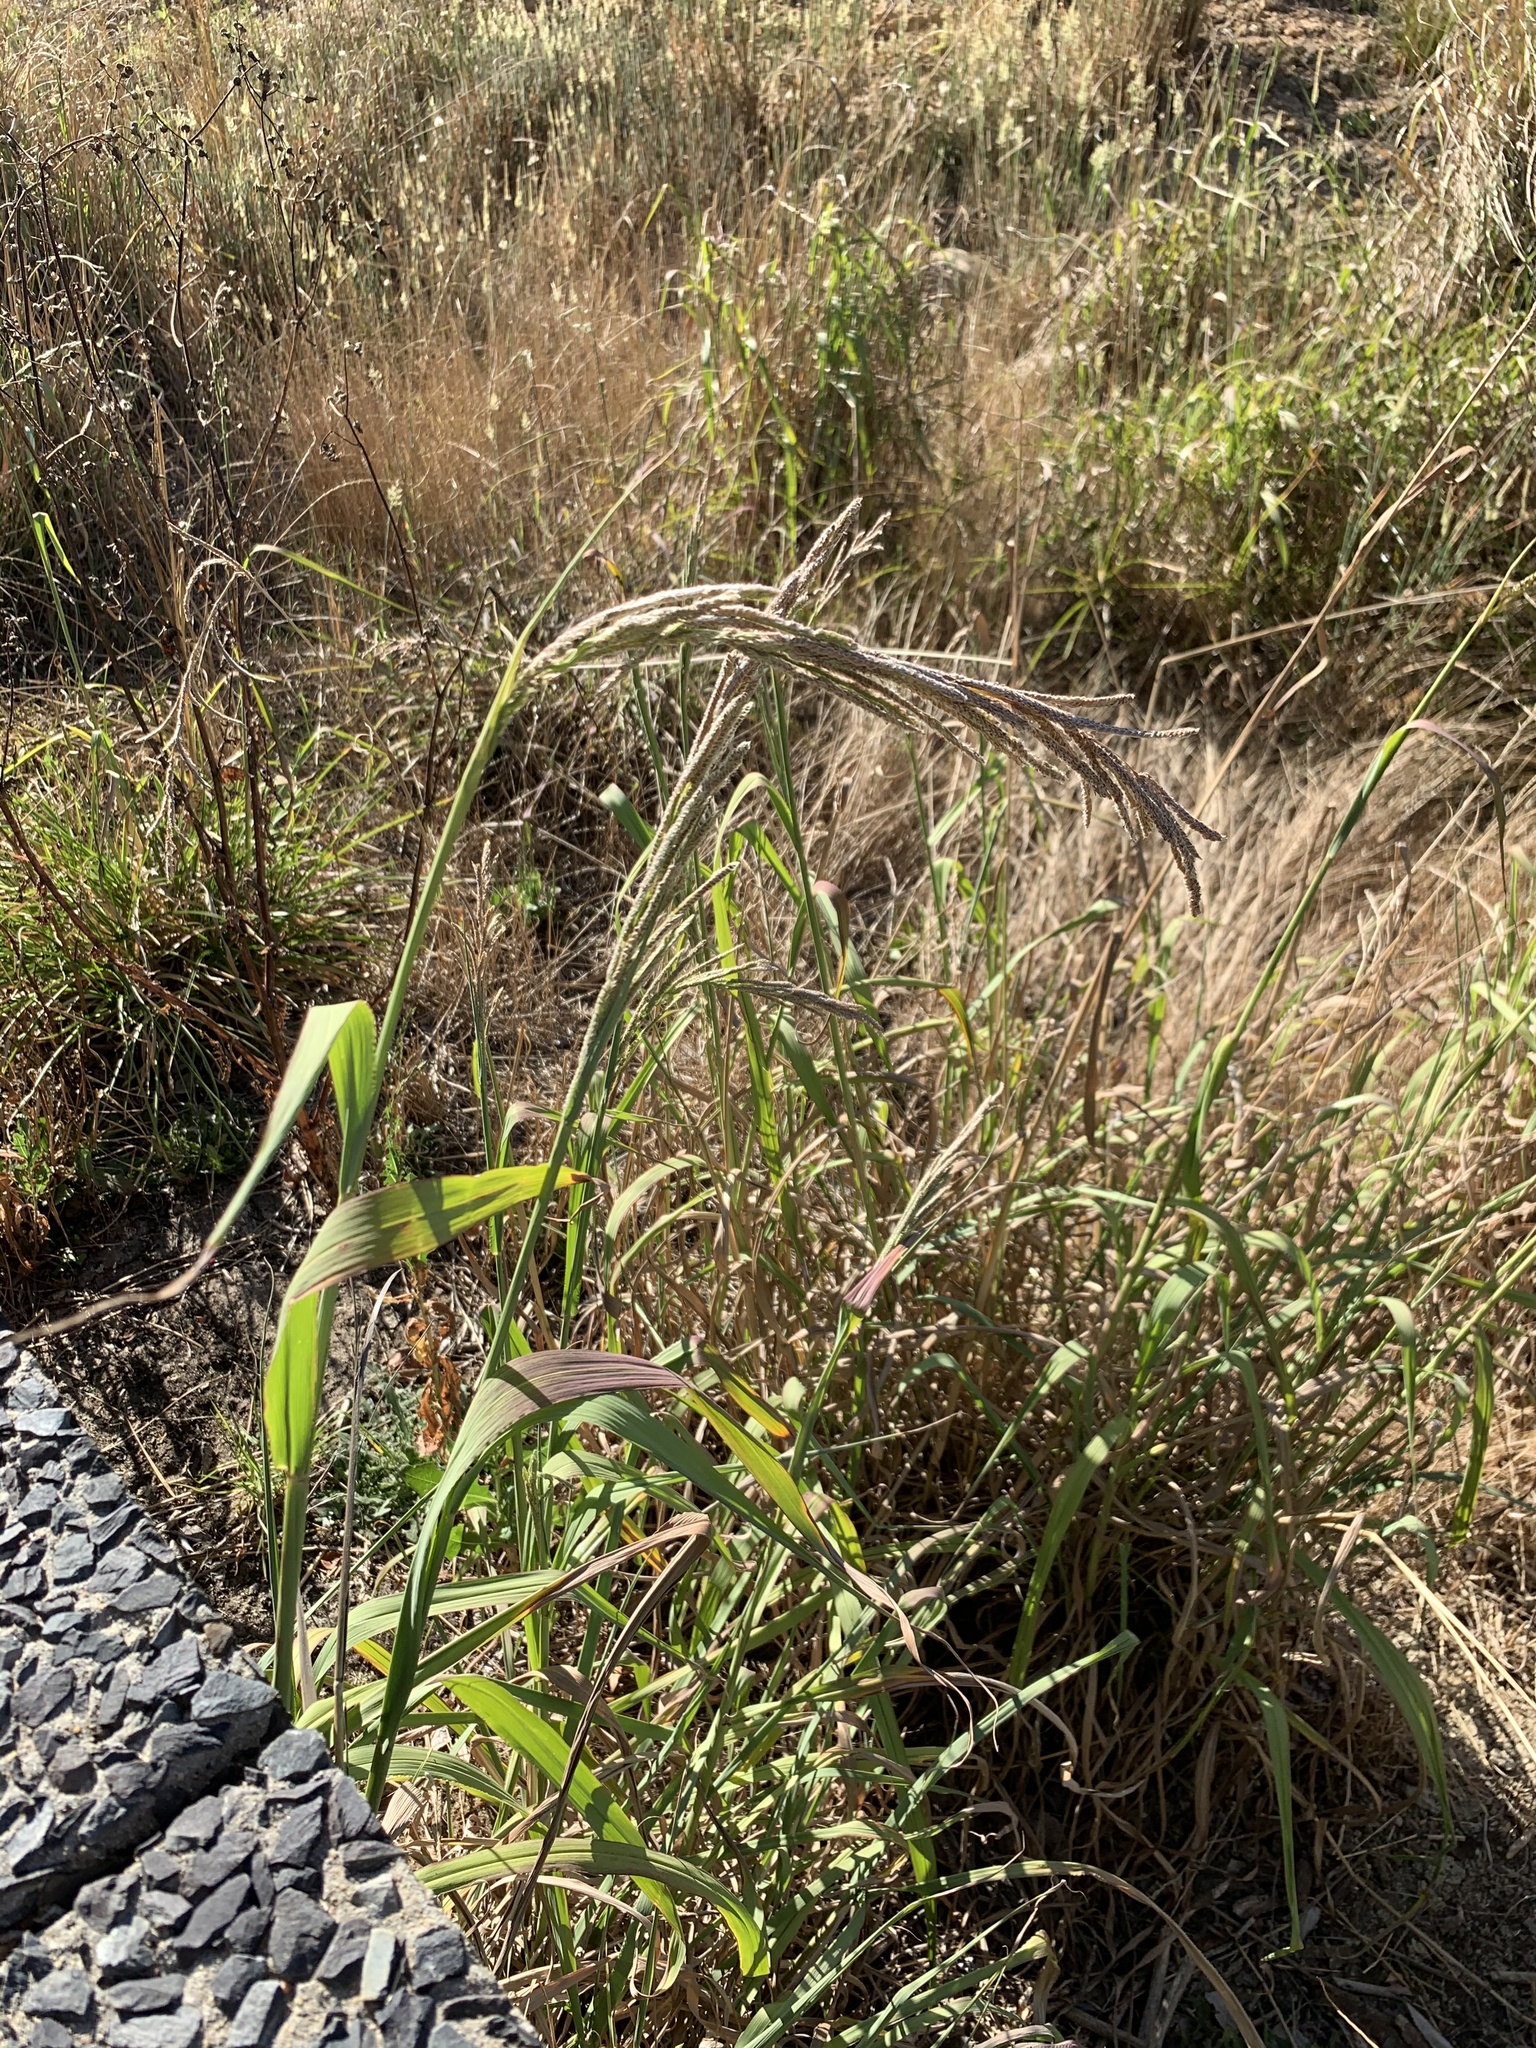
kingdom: Plantae
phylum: Tracheophyta
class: Liliopsida
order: Poales
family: Poaceae
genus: Paspalum
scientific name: Paspalum urvillei
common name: Vasey's grass
